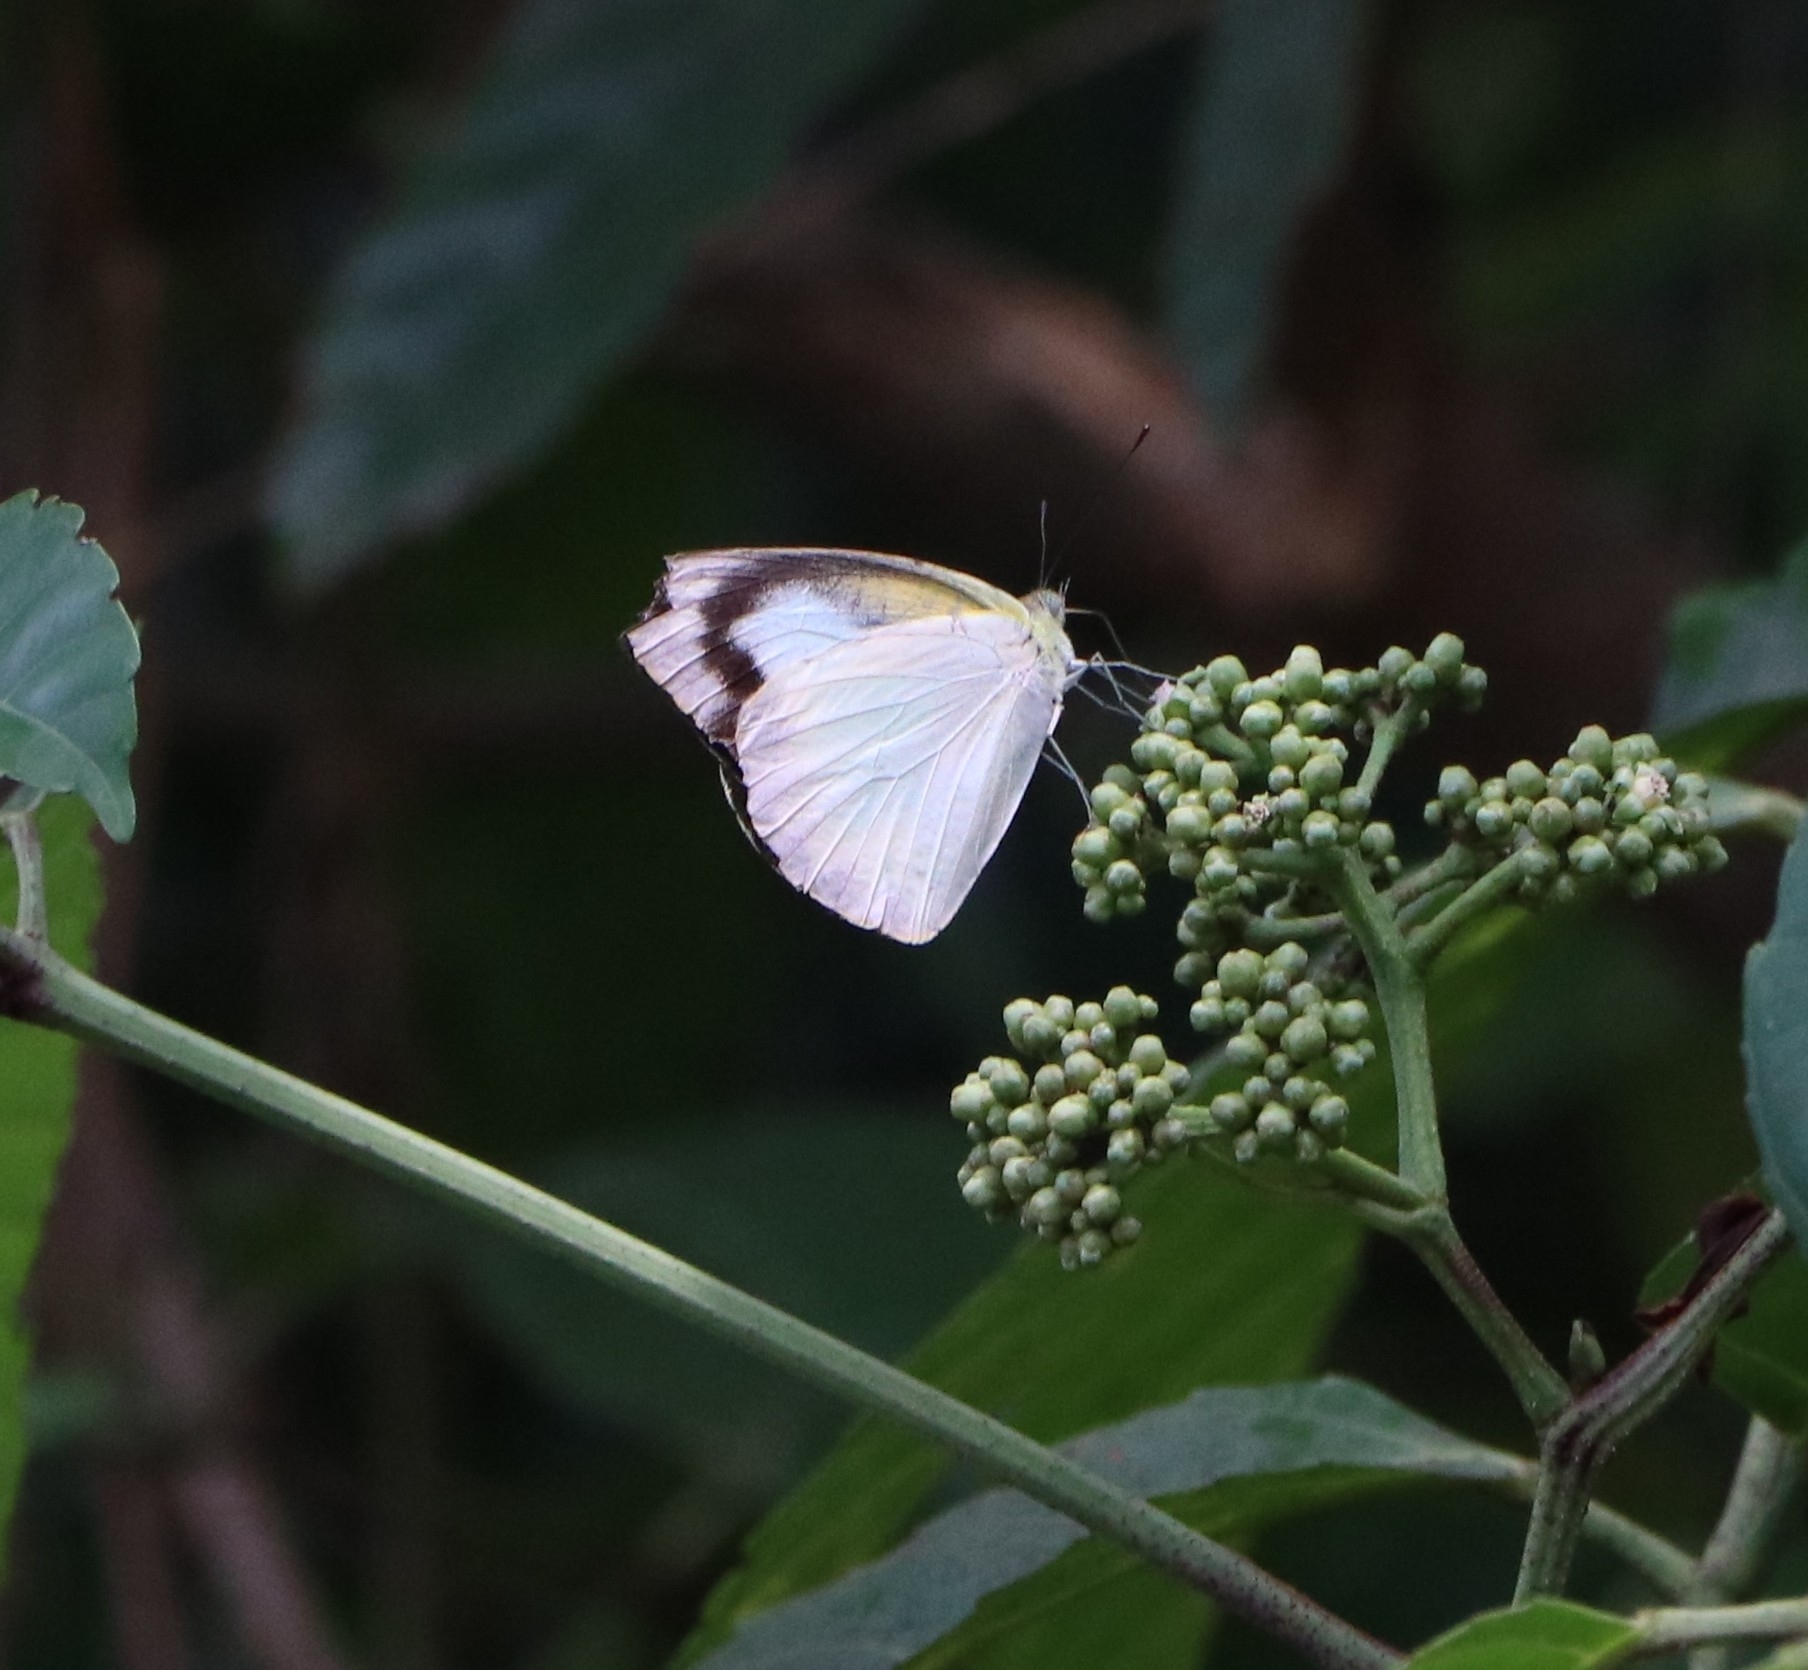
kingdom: Animalia
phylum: Arthropoda
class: Insecta
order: Lepidoptera
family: Pieridae
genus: Appias
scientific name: Appias albina
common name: Common albatross
